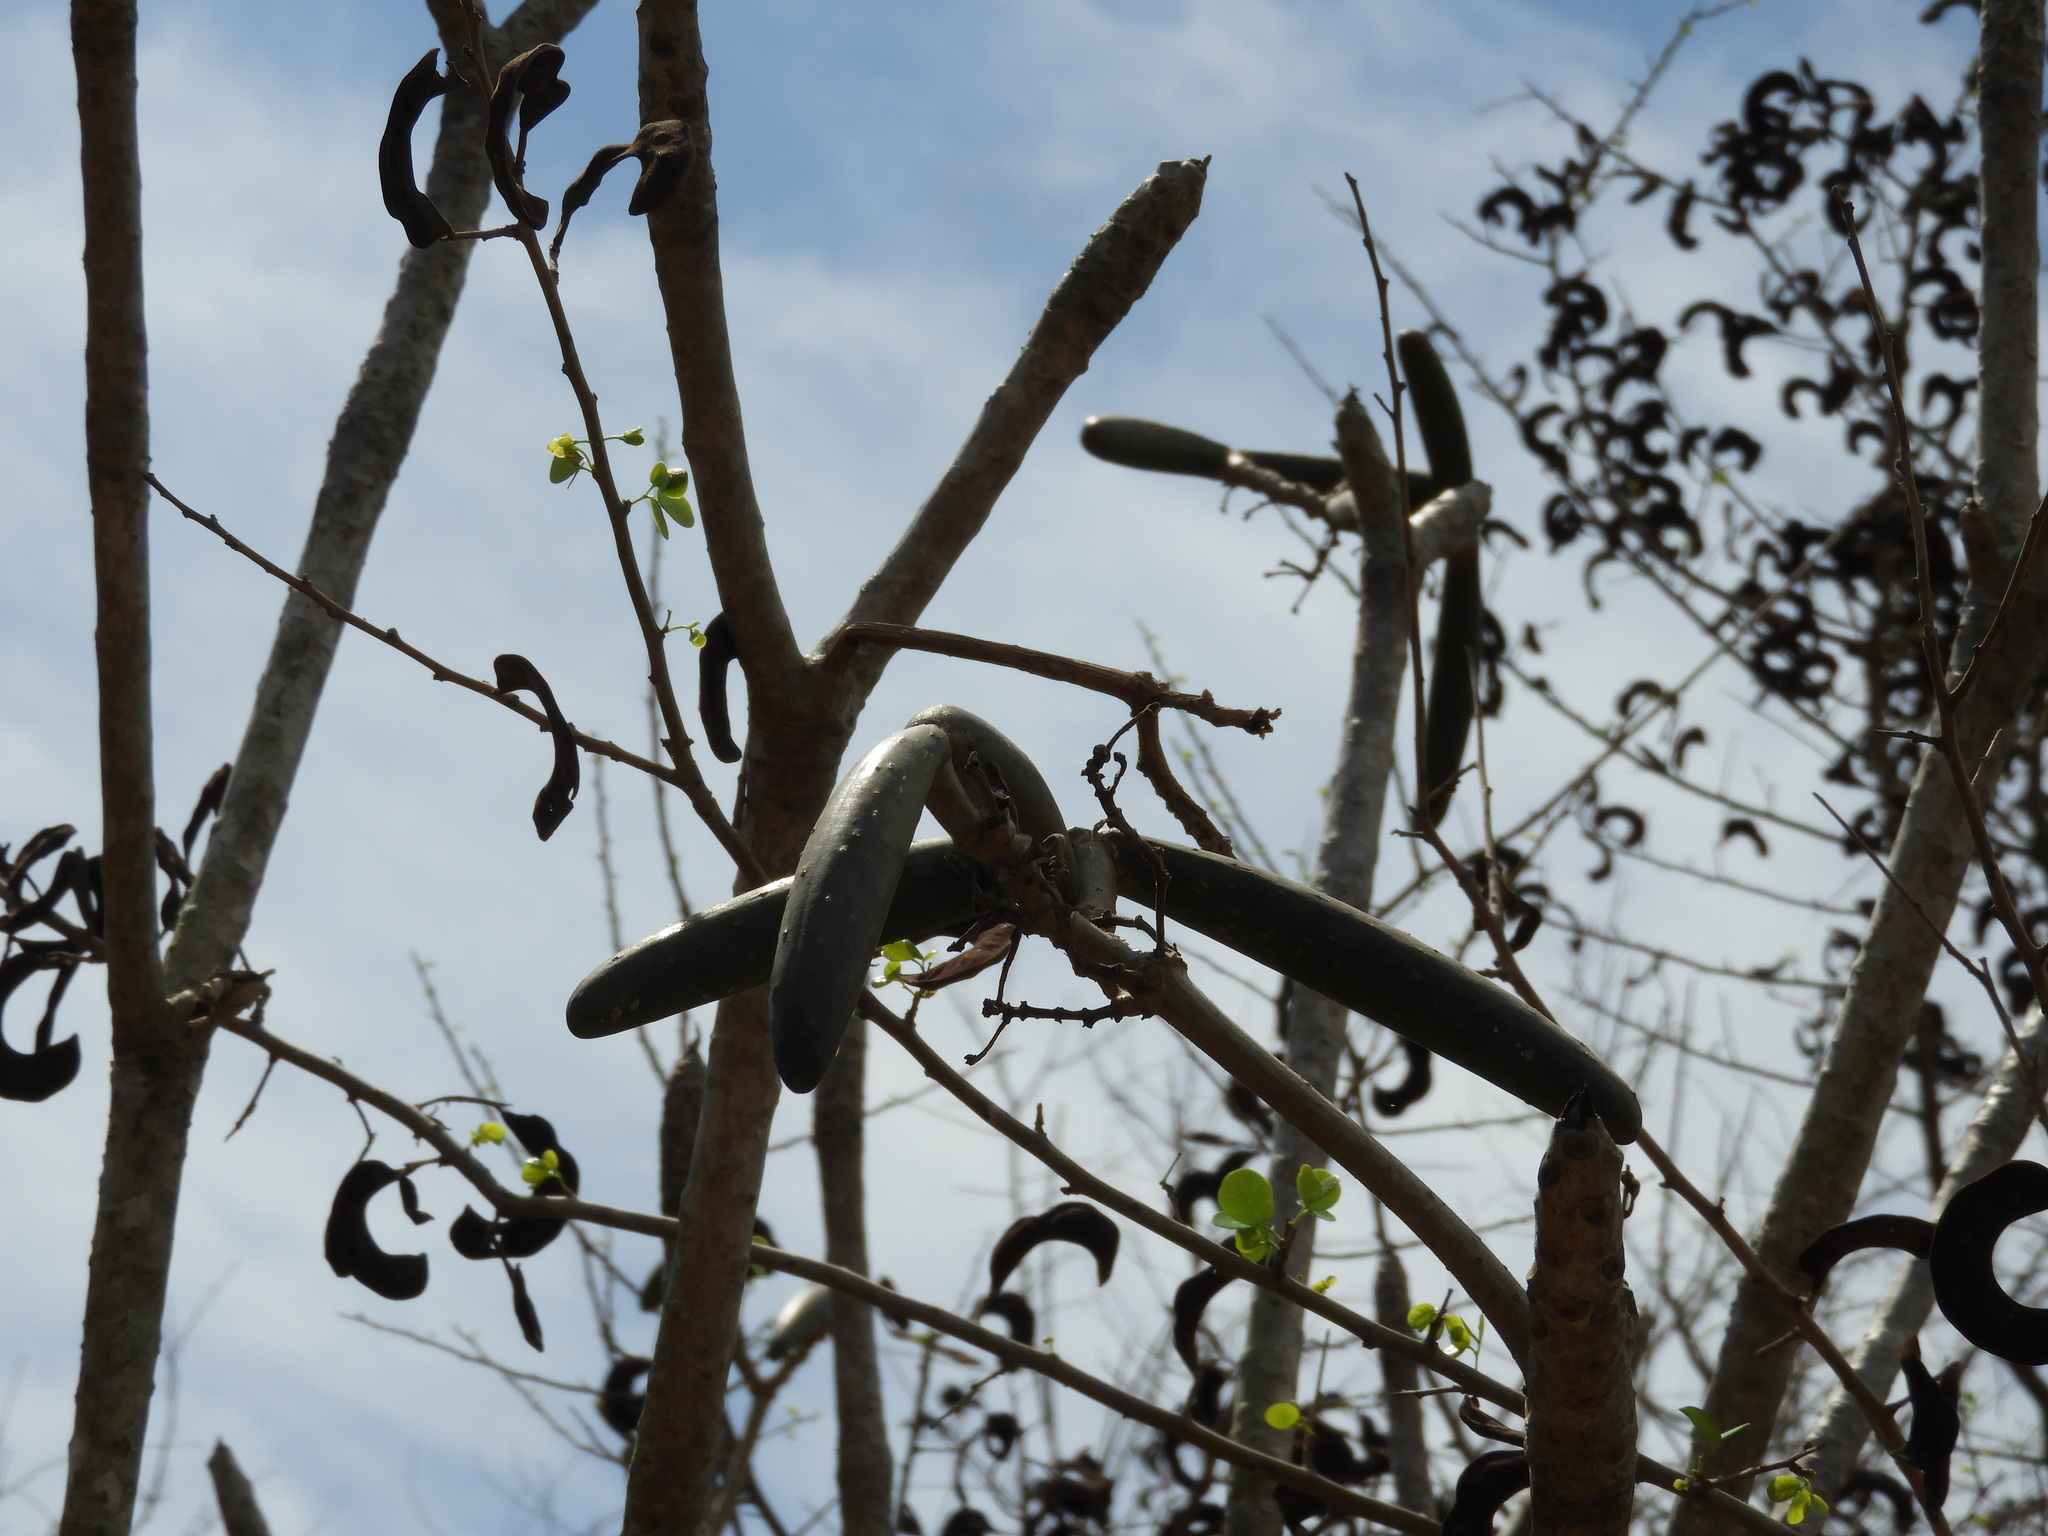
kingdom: Plantae
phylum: Tracheophyta
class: Magnoliopsida
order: Gentianales
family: Apocynaceae
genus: Plumeria
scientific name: Plumeria rubra
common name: Pagoda-tree
